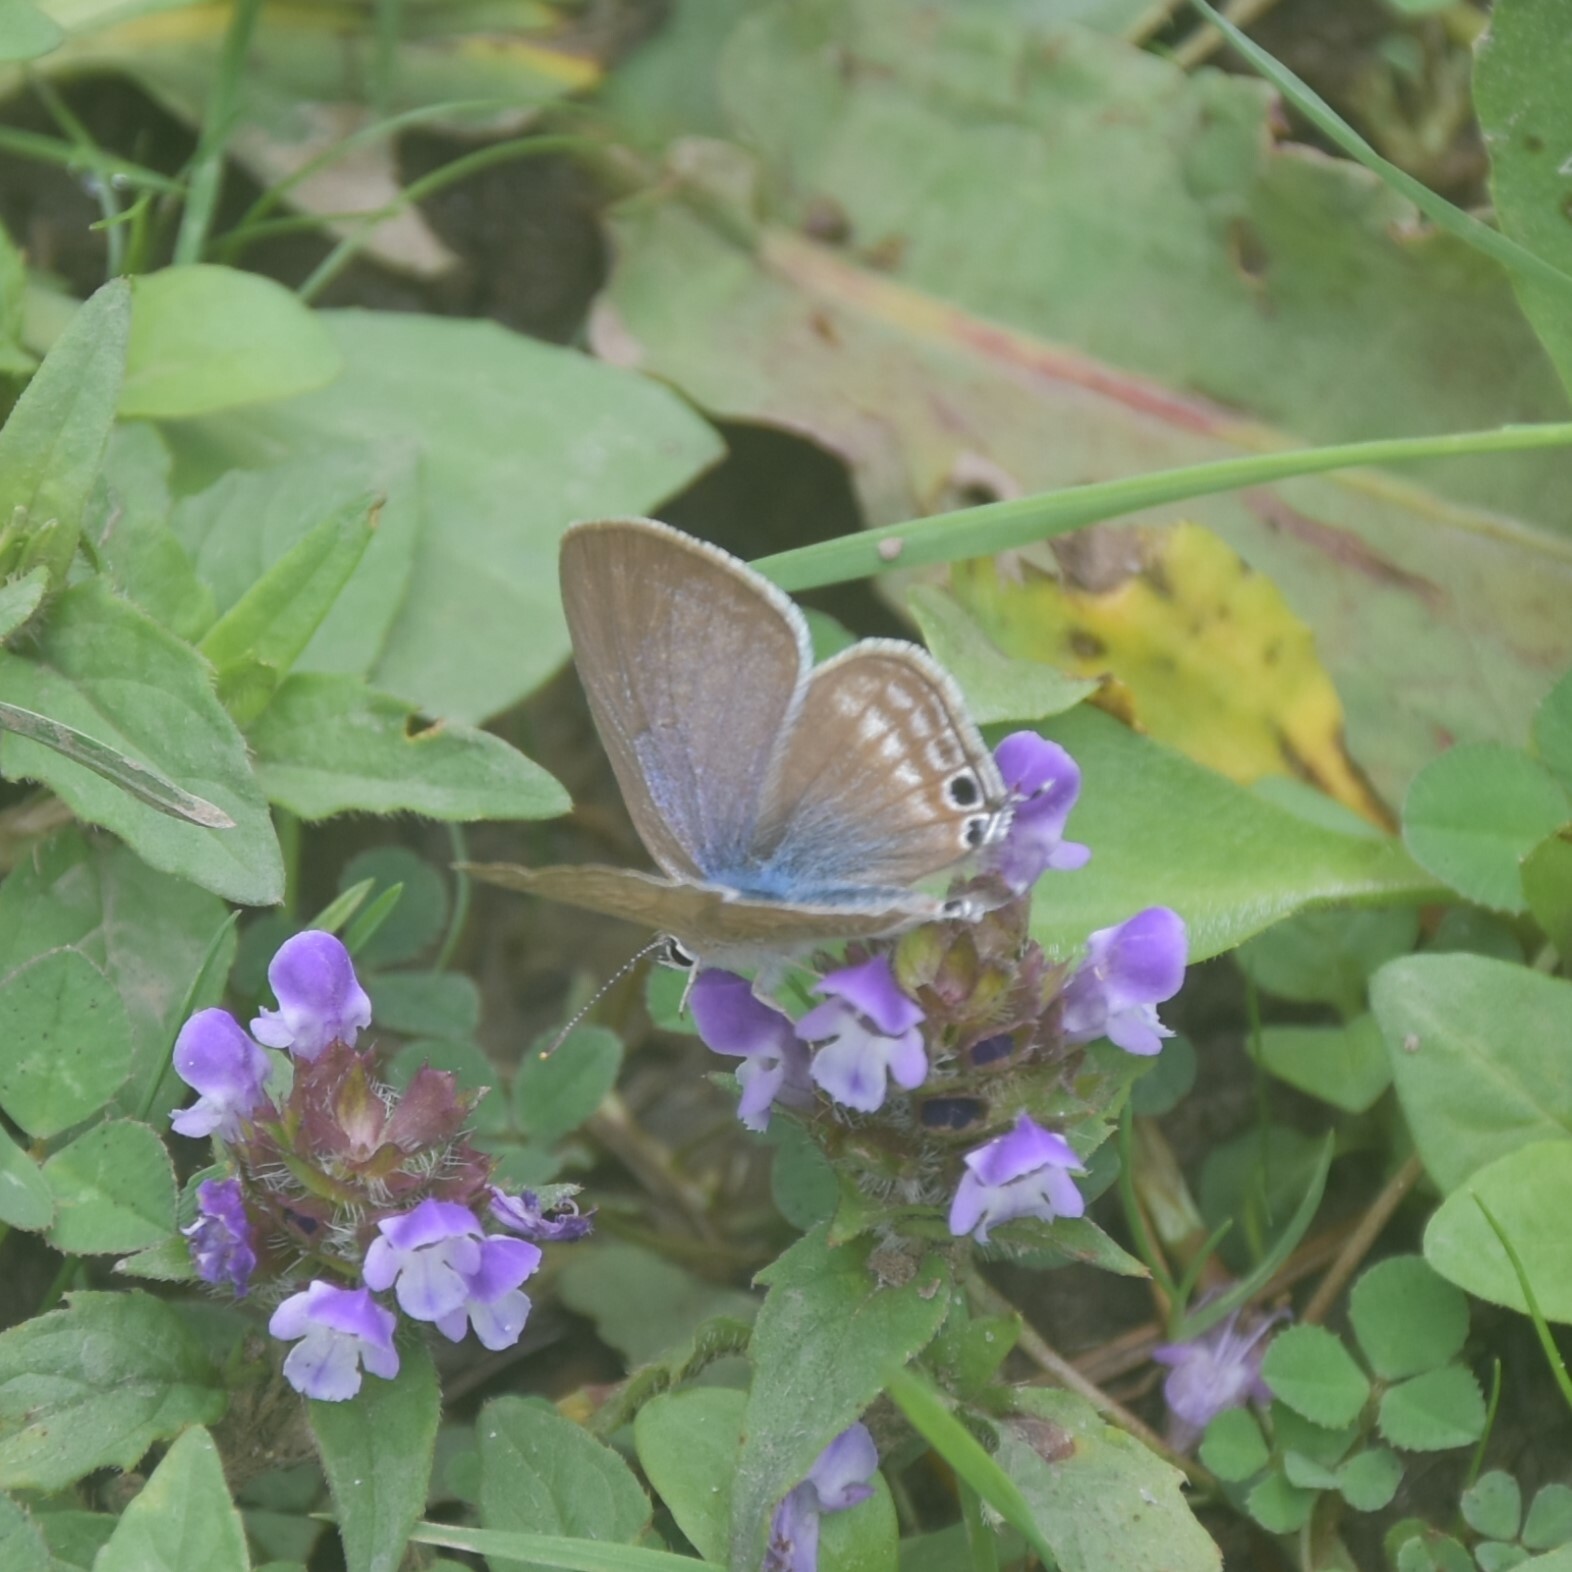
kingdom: Animalia
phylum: Arthropoda
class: Insecta
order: Lepidoptera
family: Lycaenidae
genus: Lampides
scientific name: Lampides boeticus
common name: Long-tailed blue
